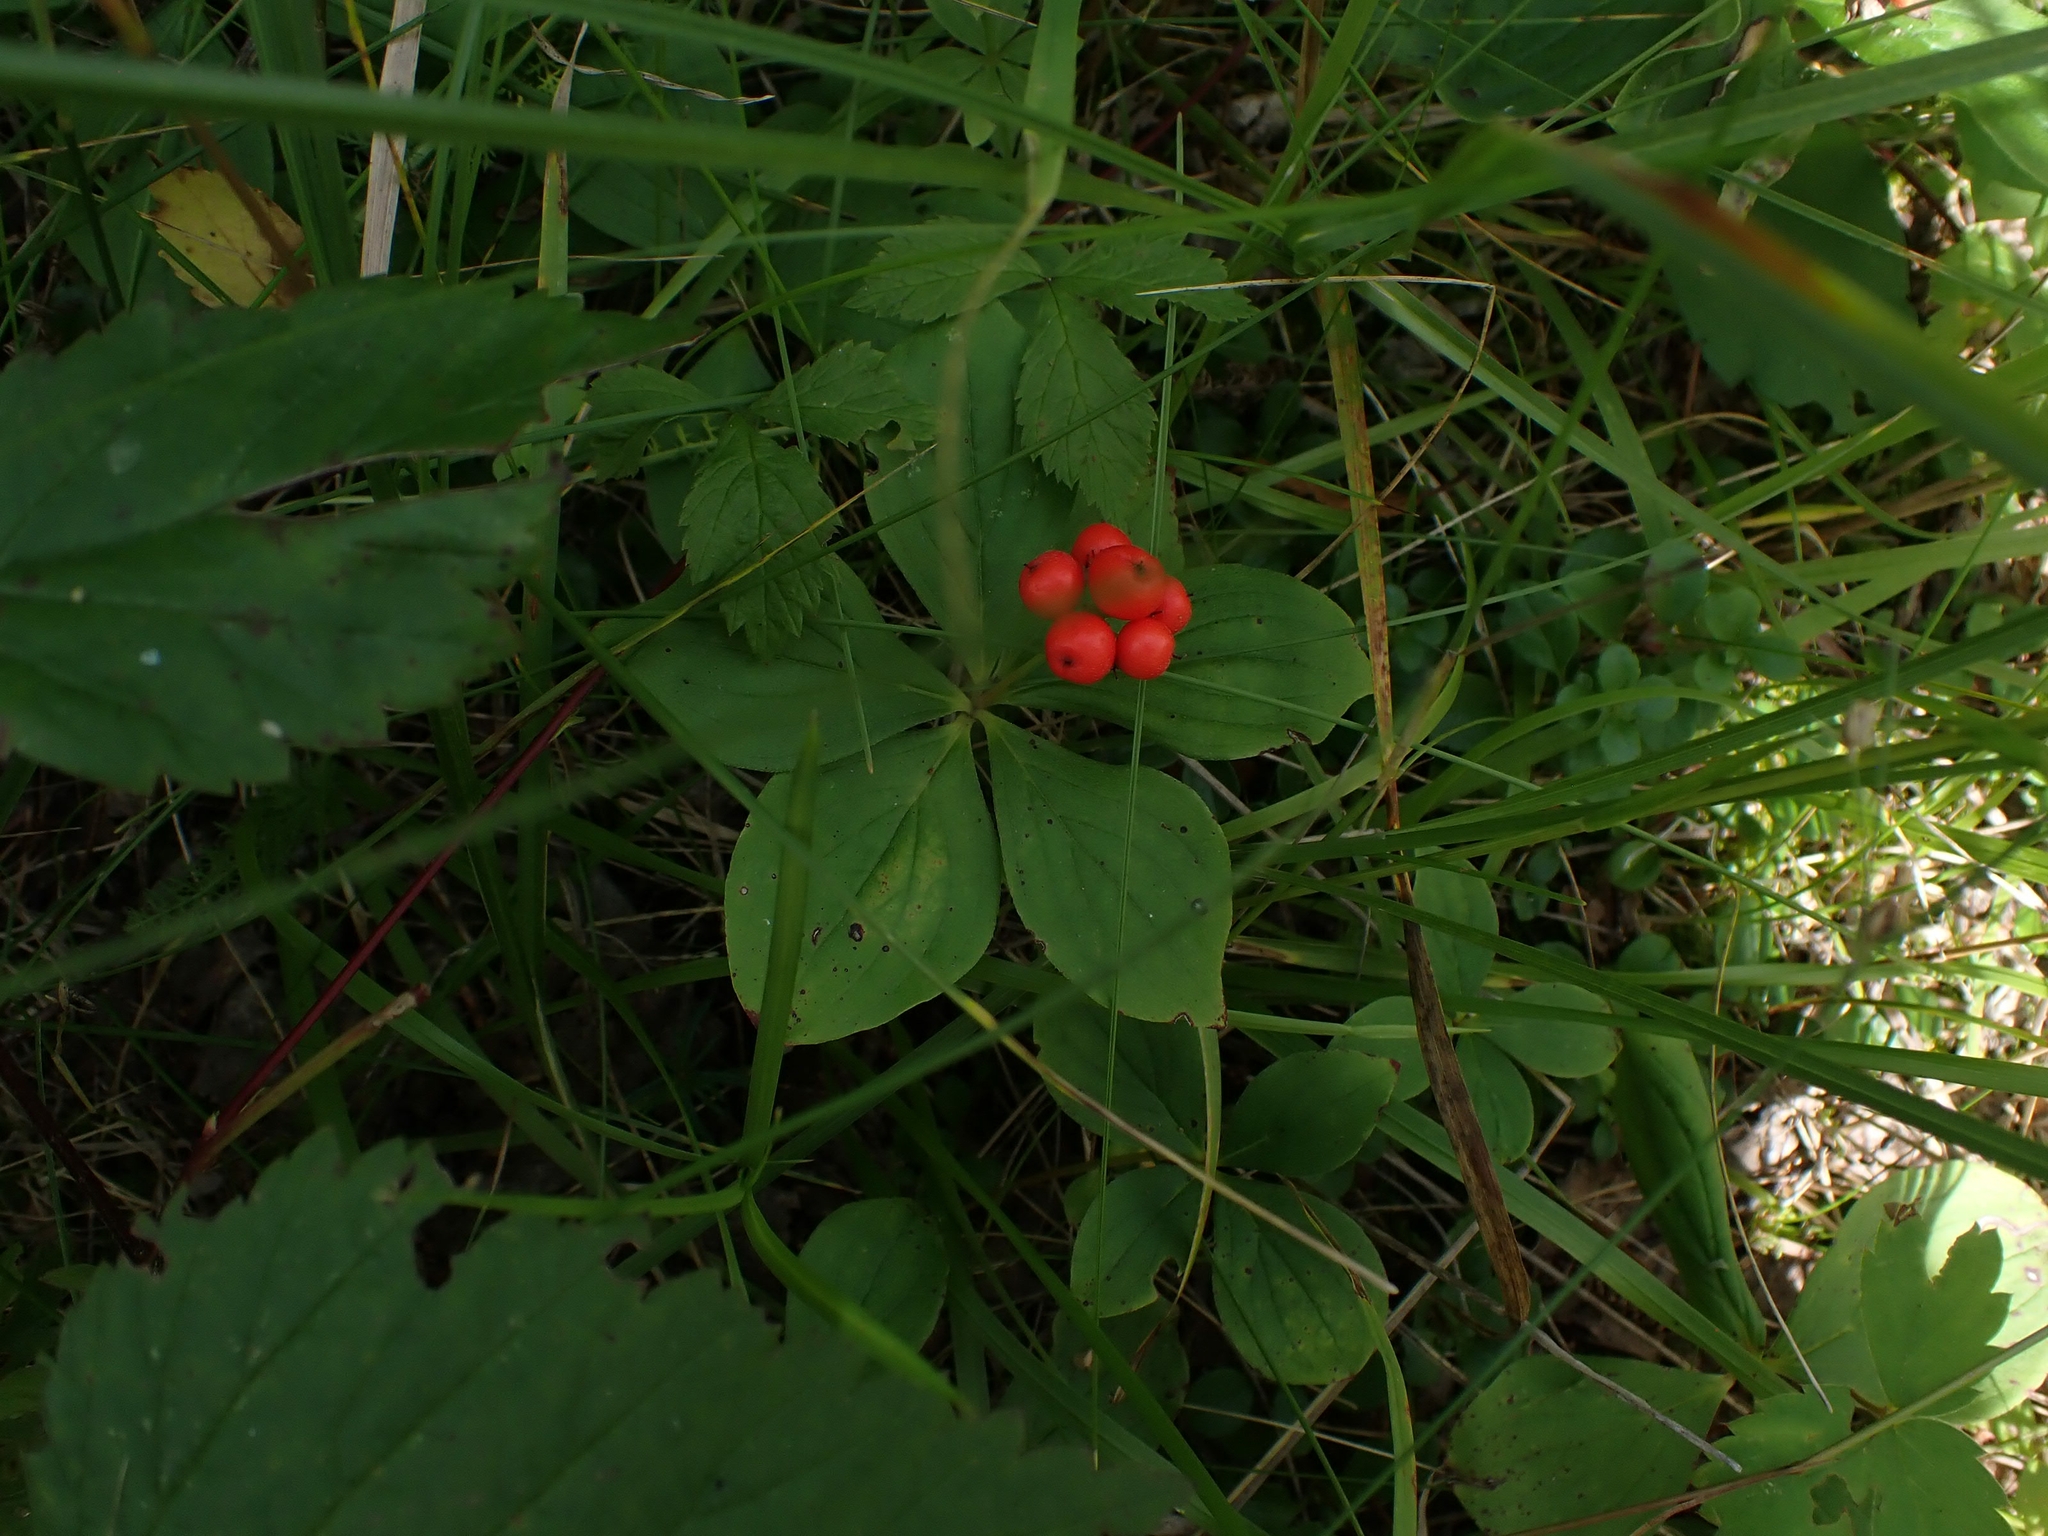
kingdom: Plantae
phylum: Tracheophyta
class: Magnoliopsida
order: Cornales
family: Cornaceae
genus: Cornus
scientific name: Cornus canadensis
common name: Creeping dogwood
